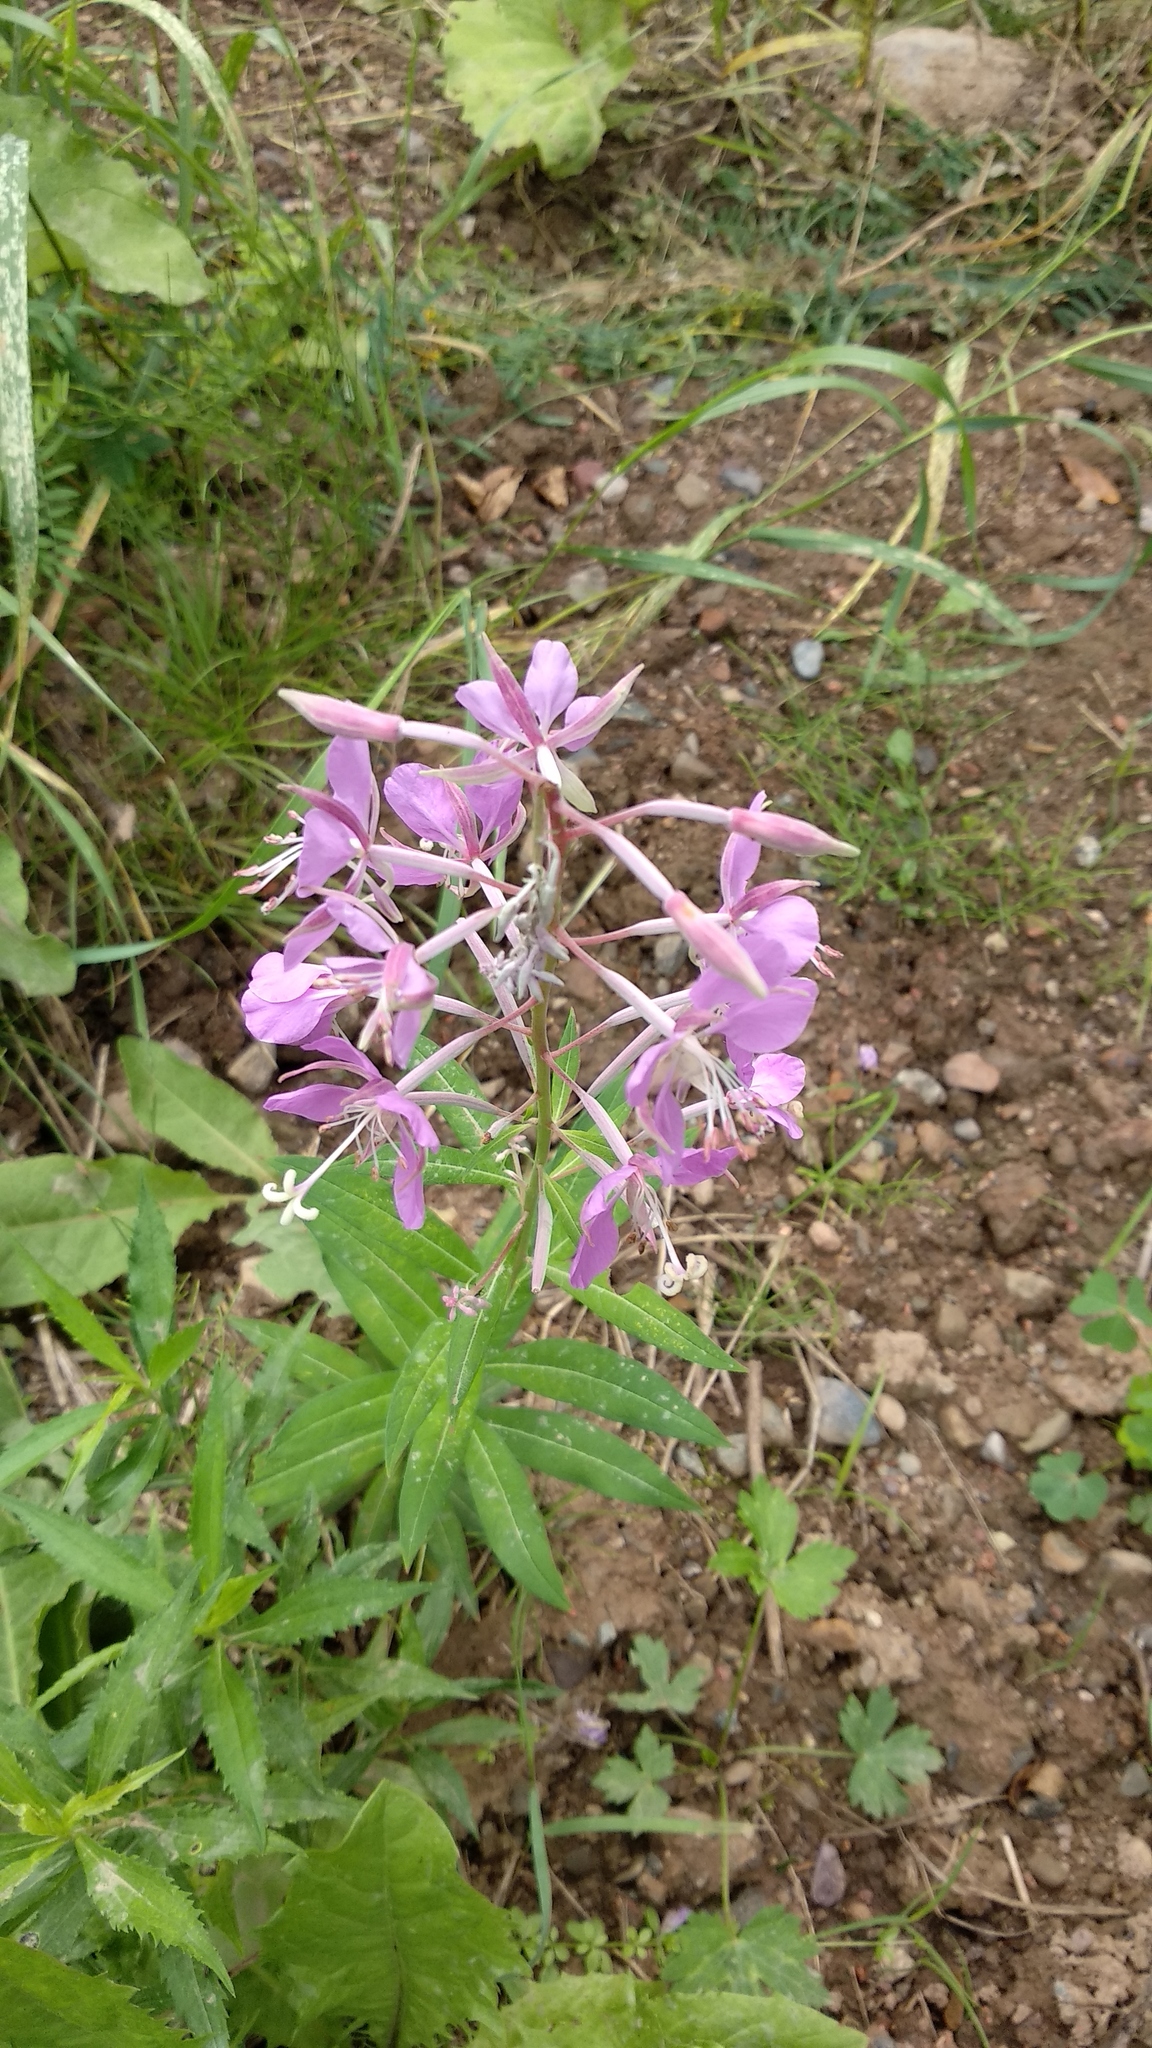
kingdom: Plantae
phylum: Tracheophyta
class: Magnoliopsida
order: Myrtales
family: Onagraceae
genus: Chamaenerion
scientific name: Chamaenerion angustifolium
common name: Fireweed
